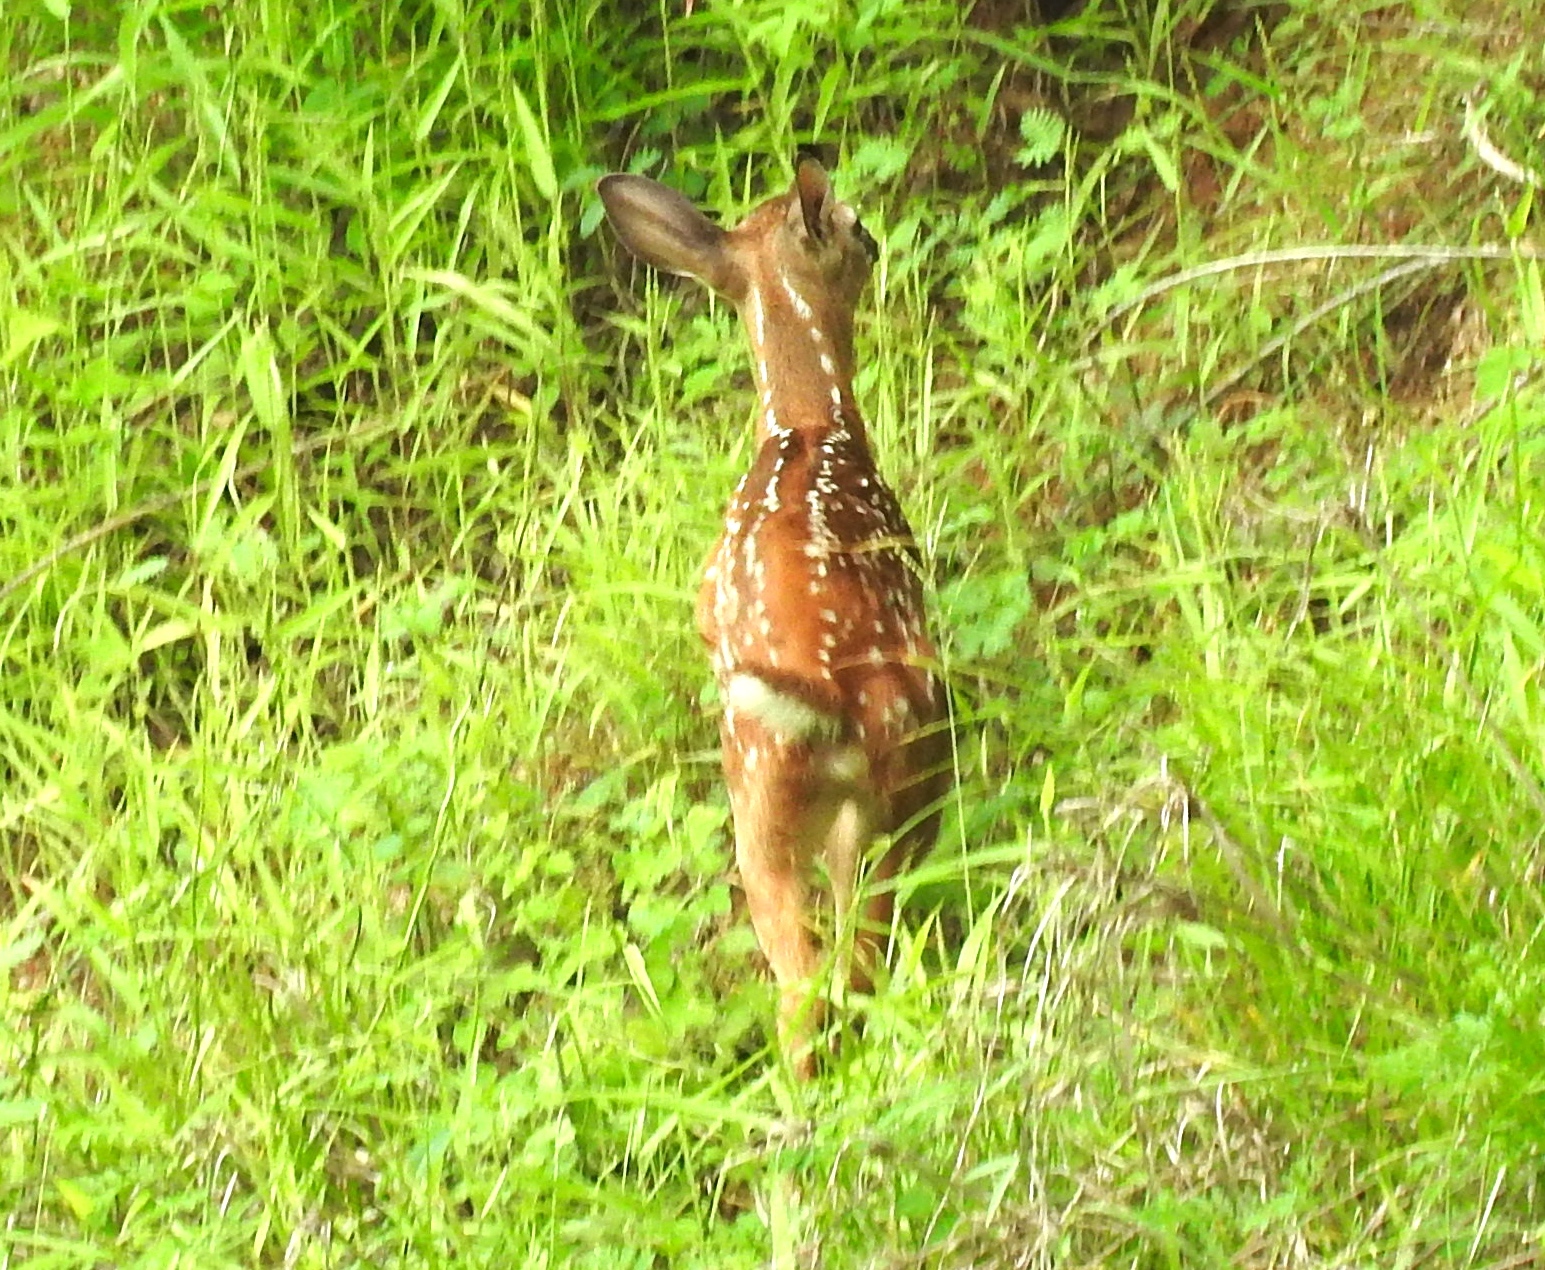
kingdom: Animalia
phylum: Chordata
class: Mammalia
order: Artiodactyla
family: Cervidae
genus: Odocoileus
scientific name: Odocoileus virginianus
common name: White-tailed deer
